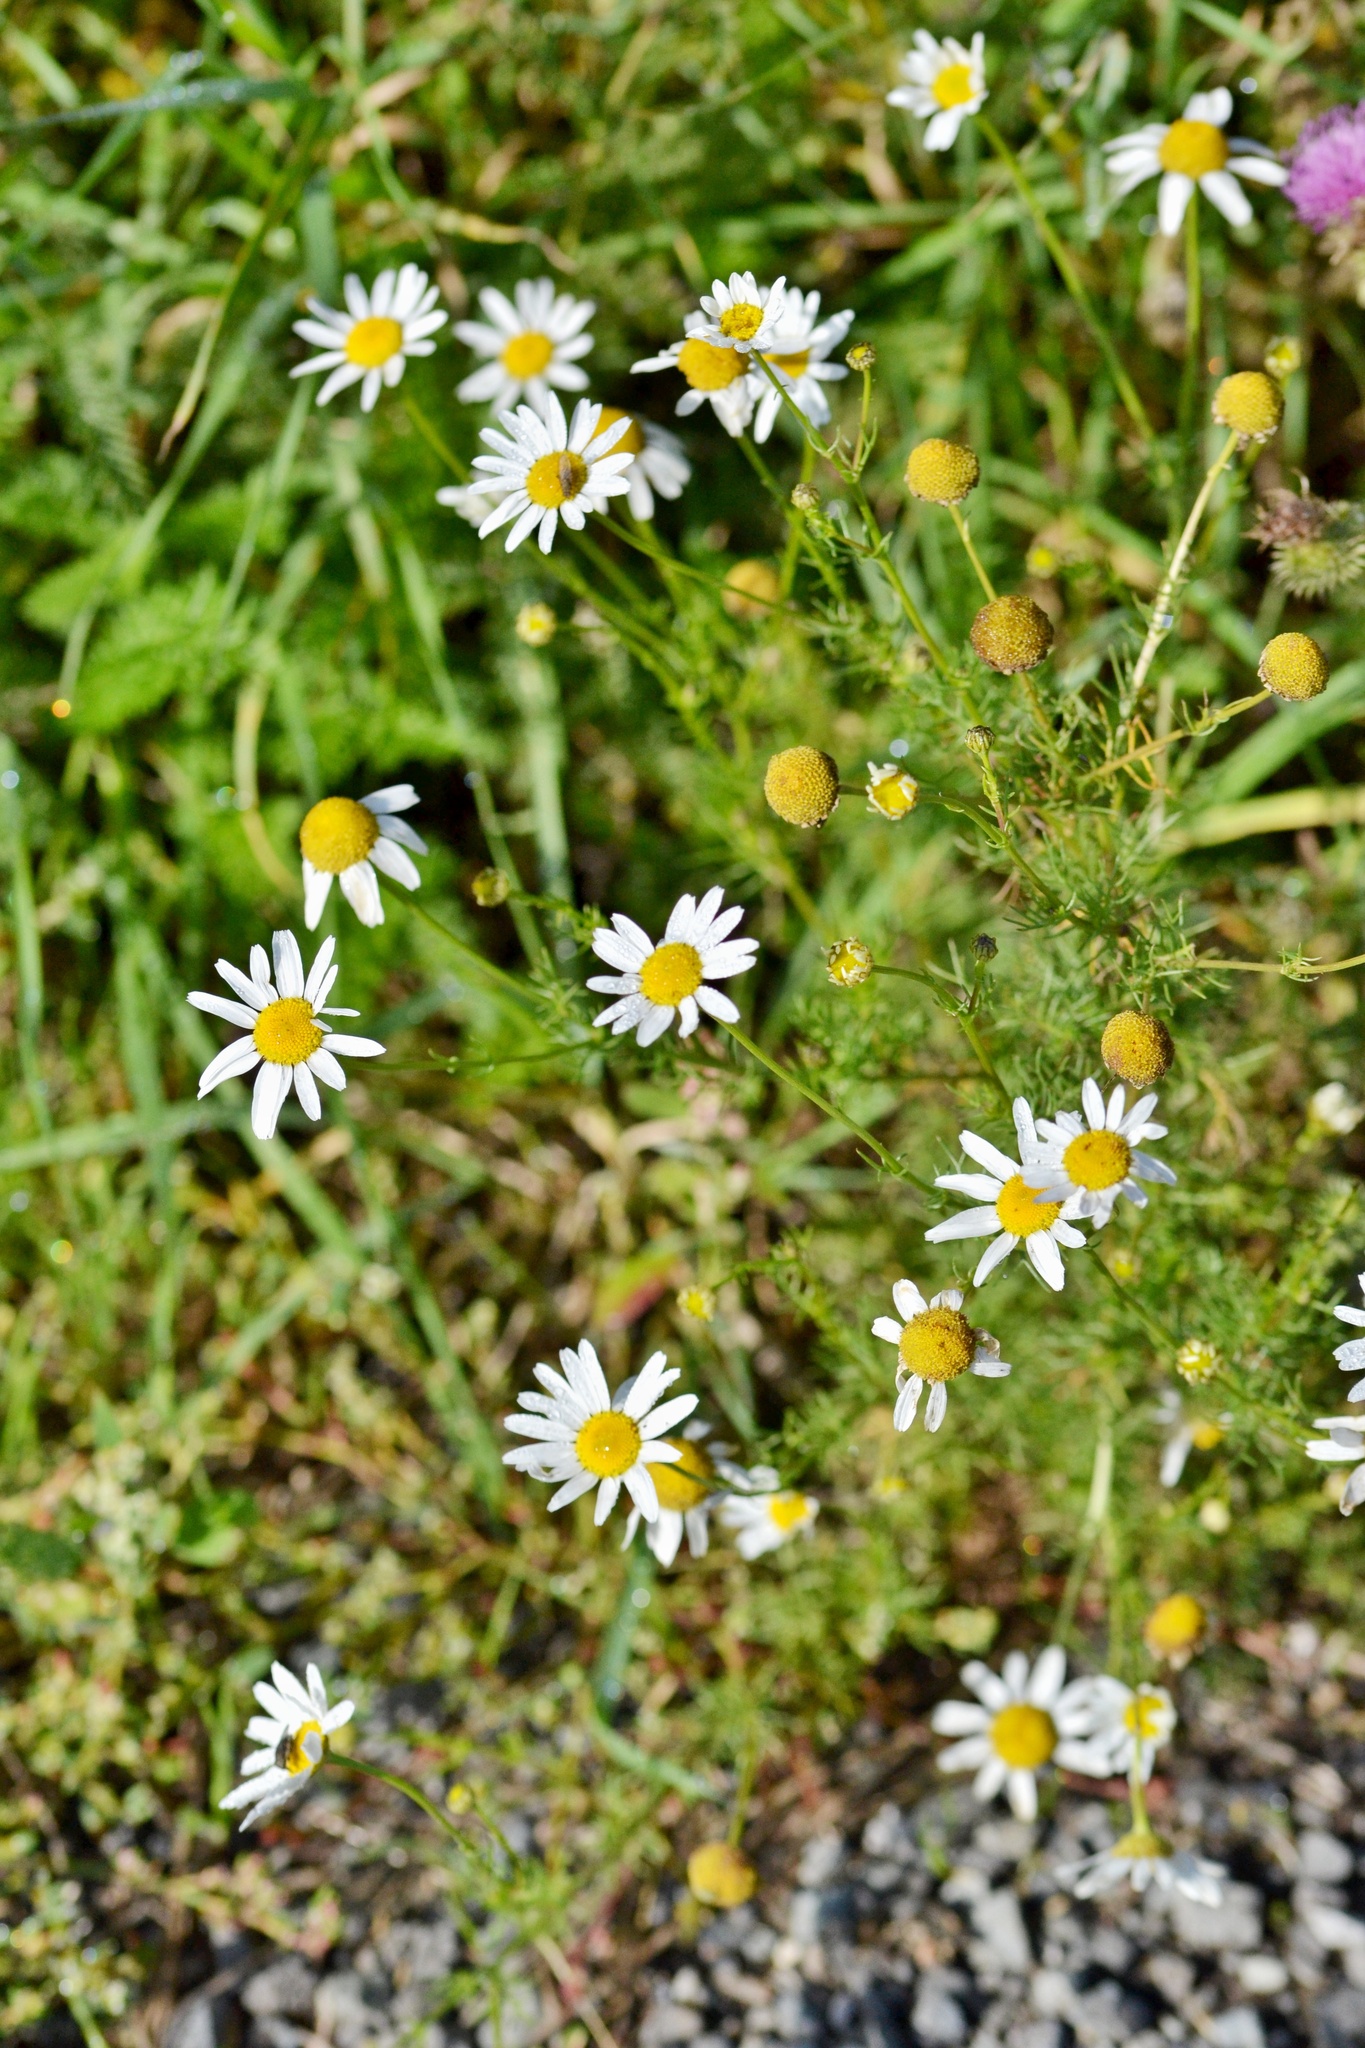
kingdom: Plantae
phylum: Tracheophyta
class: Magnoliopsida
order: Asterales
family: Asteraceae
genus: Tripleurospermum
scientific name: Tripleurospermum inodorum
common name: Scentless mayweed
